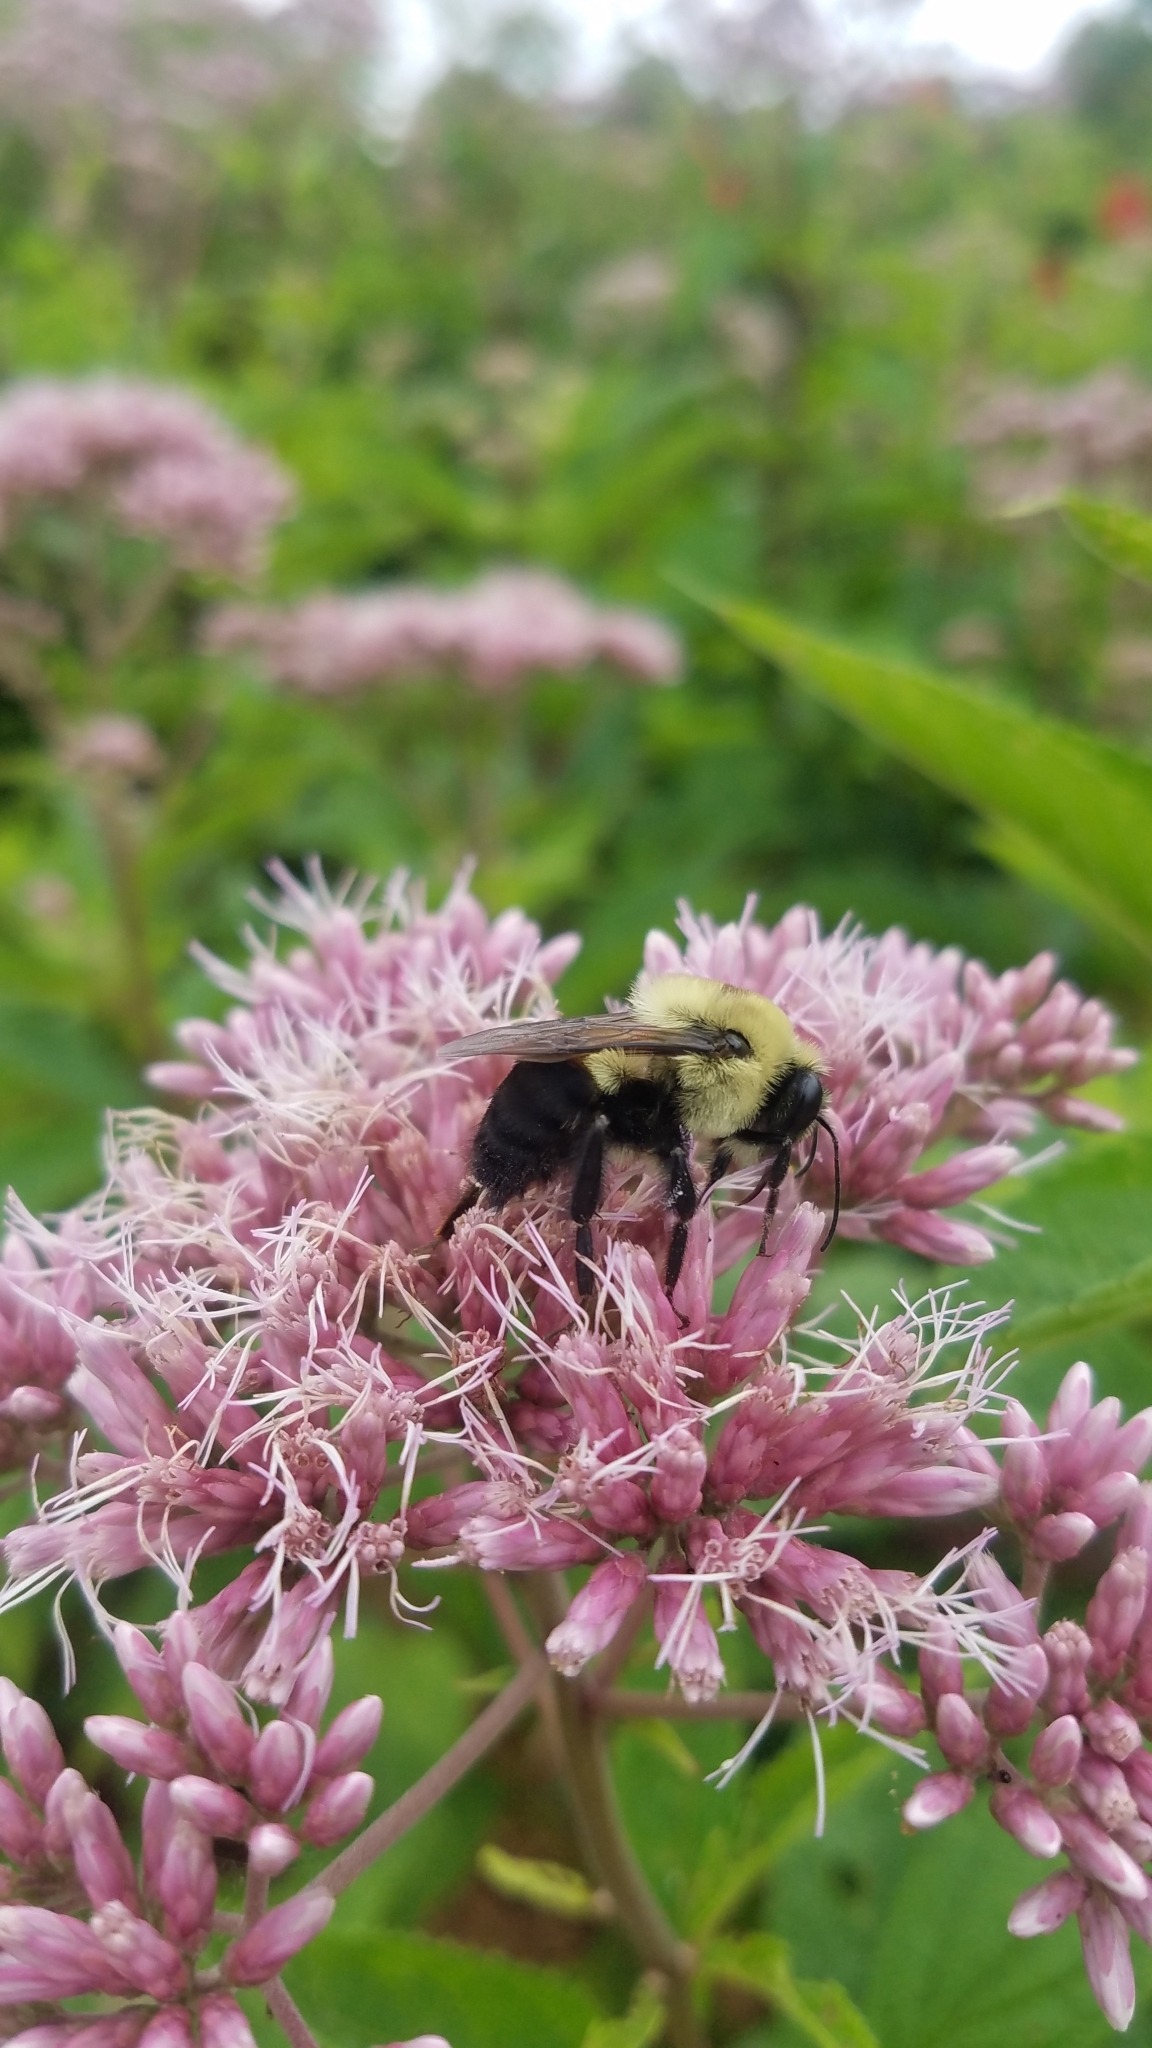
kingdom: Animalia
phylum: Arthropoda
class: Insecta
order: Hymenoptera
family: Apidae
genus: Bombus
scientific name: Bombus griseocollis
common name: Brown-belted bumble bee
